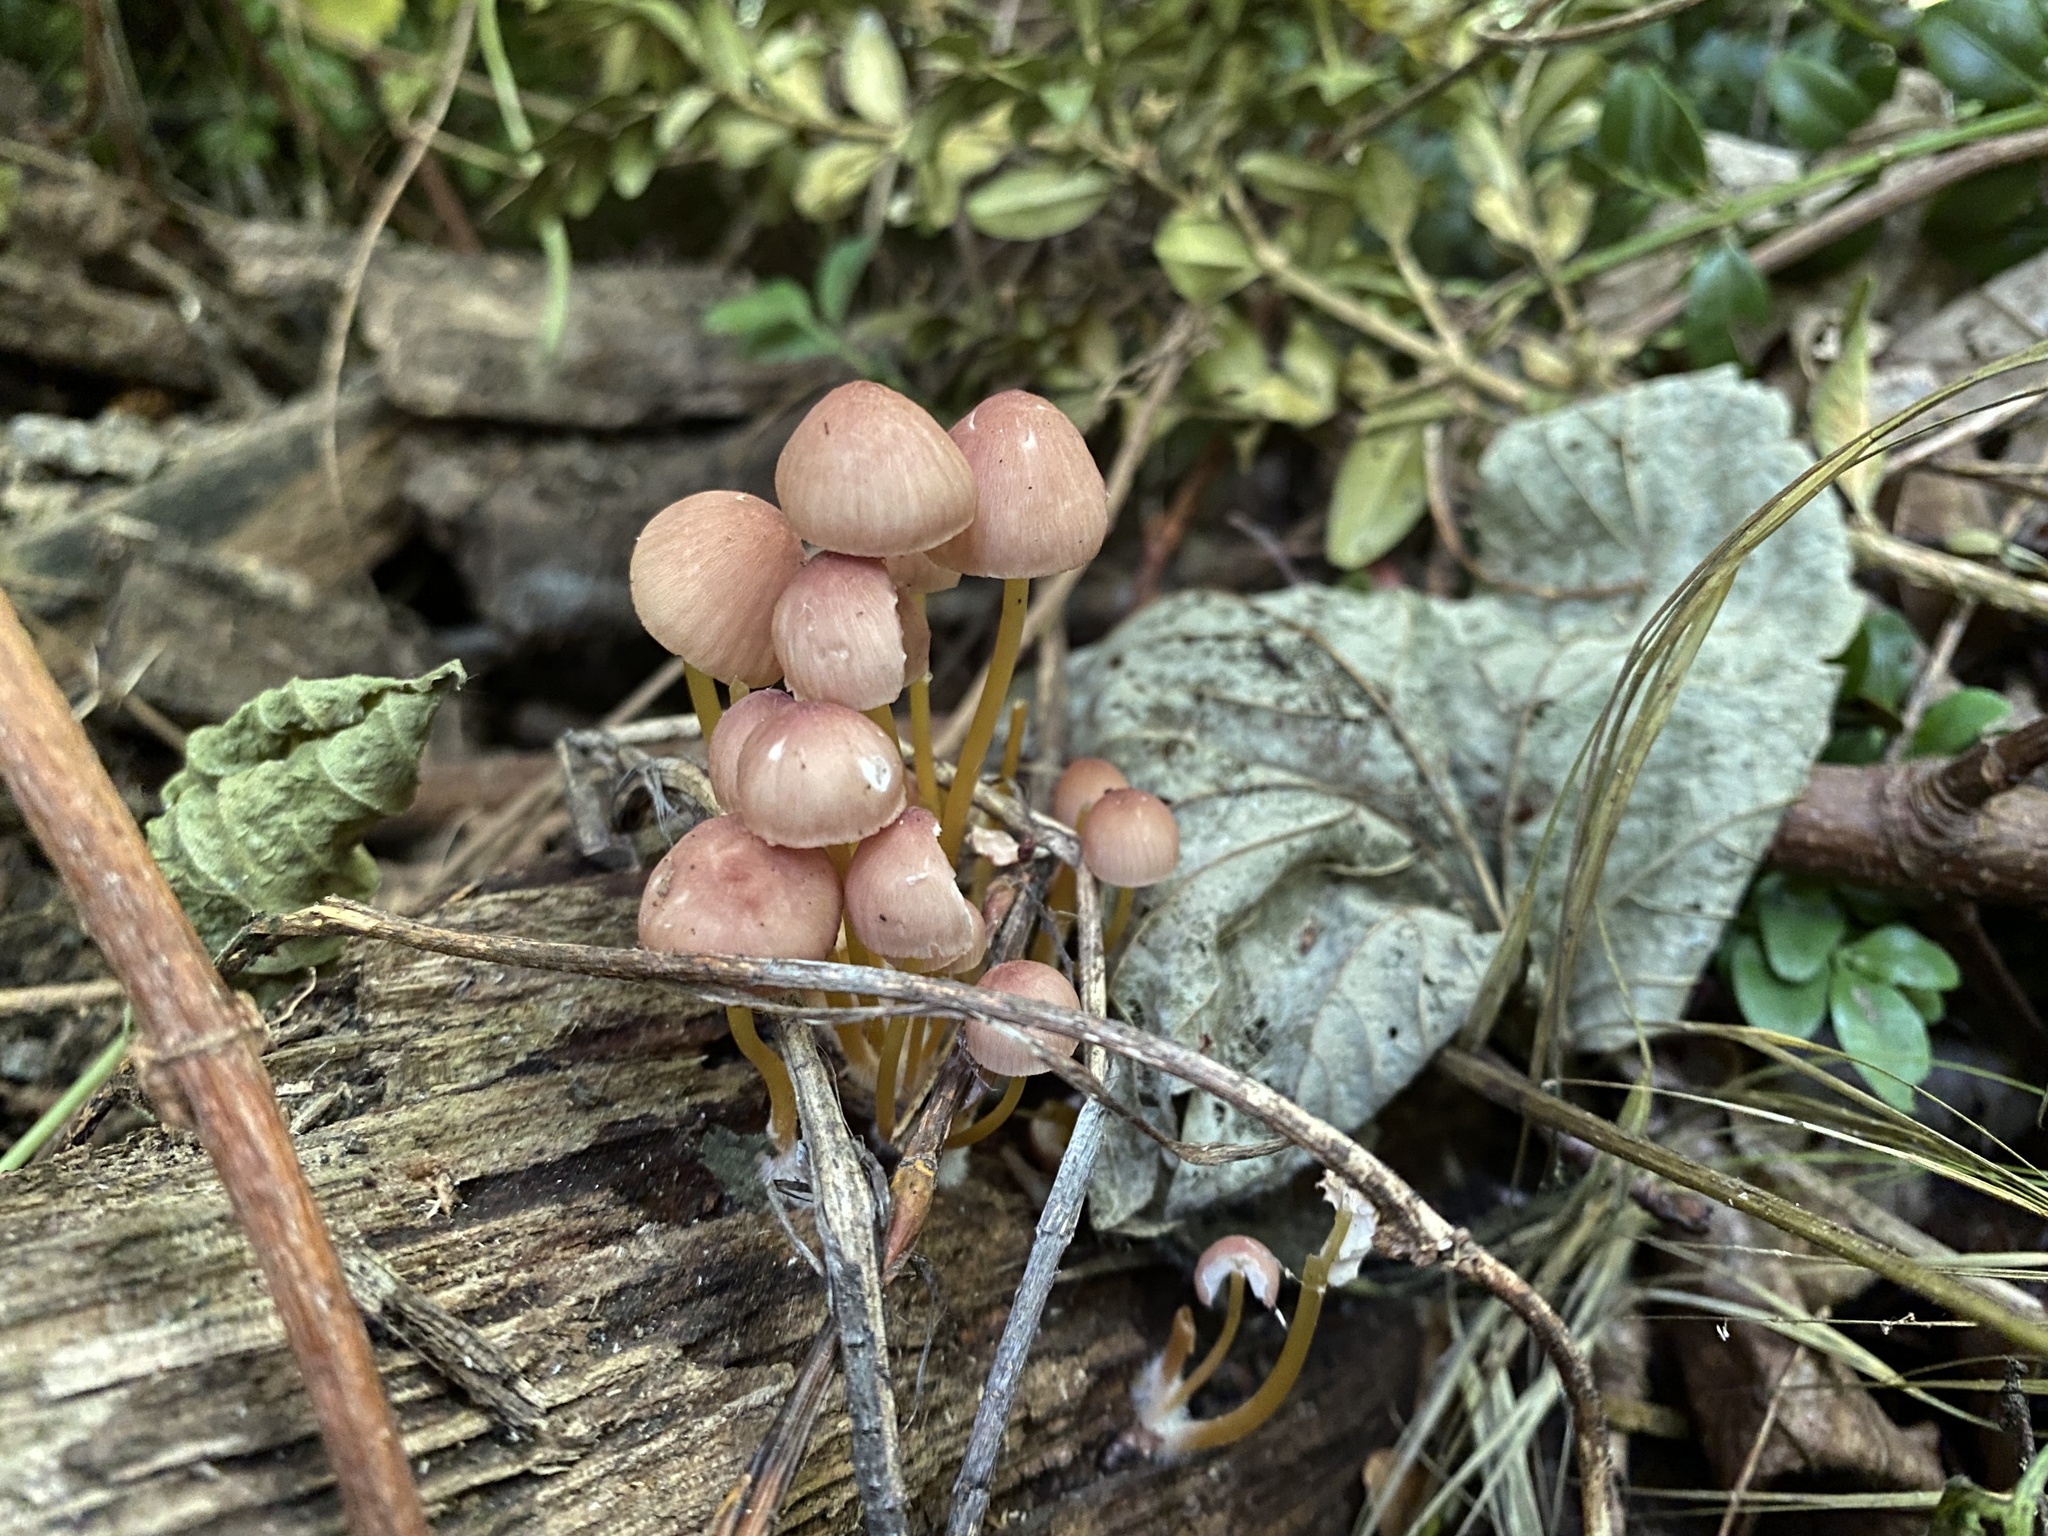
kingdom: Fungi
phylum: Basidiomycota
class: Agaricomycetes
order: Agaricales
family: Mycenaceae
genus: Mycena
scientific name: Mycena renati
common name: Beautiful bonnet
